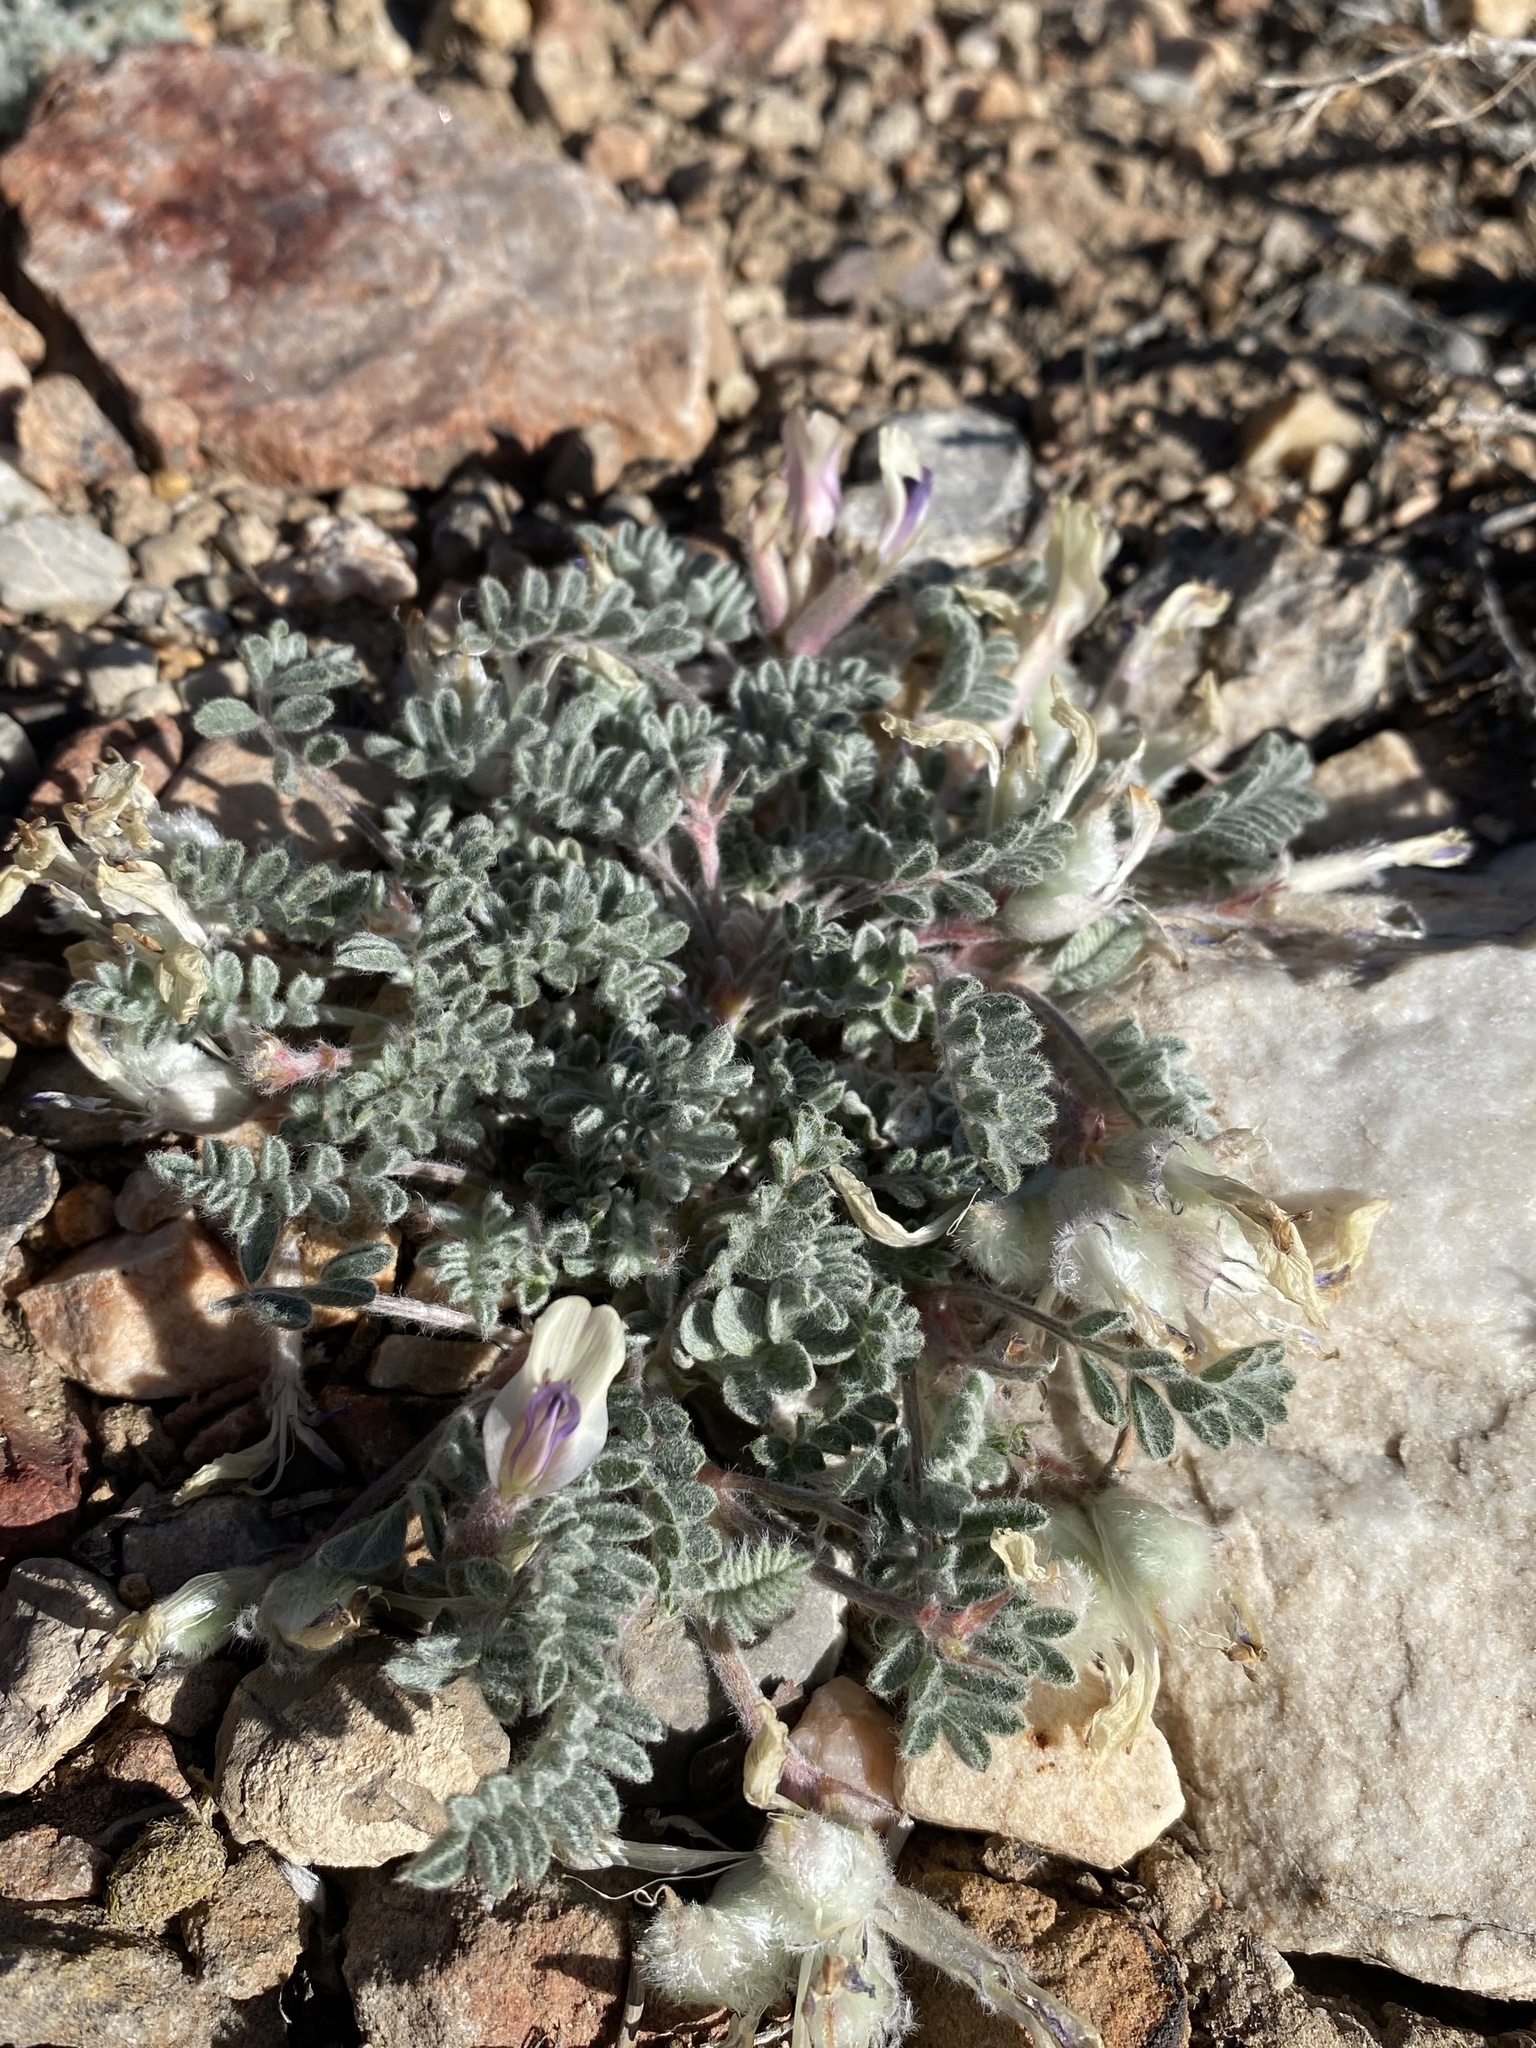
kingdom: Plantae
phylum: Tracheophyta
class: Magnoliopsida
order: Fabales
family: Fabaceae
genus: Astragalus
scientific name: Astragalus purshii
